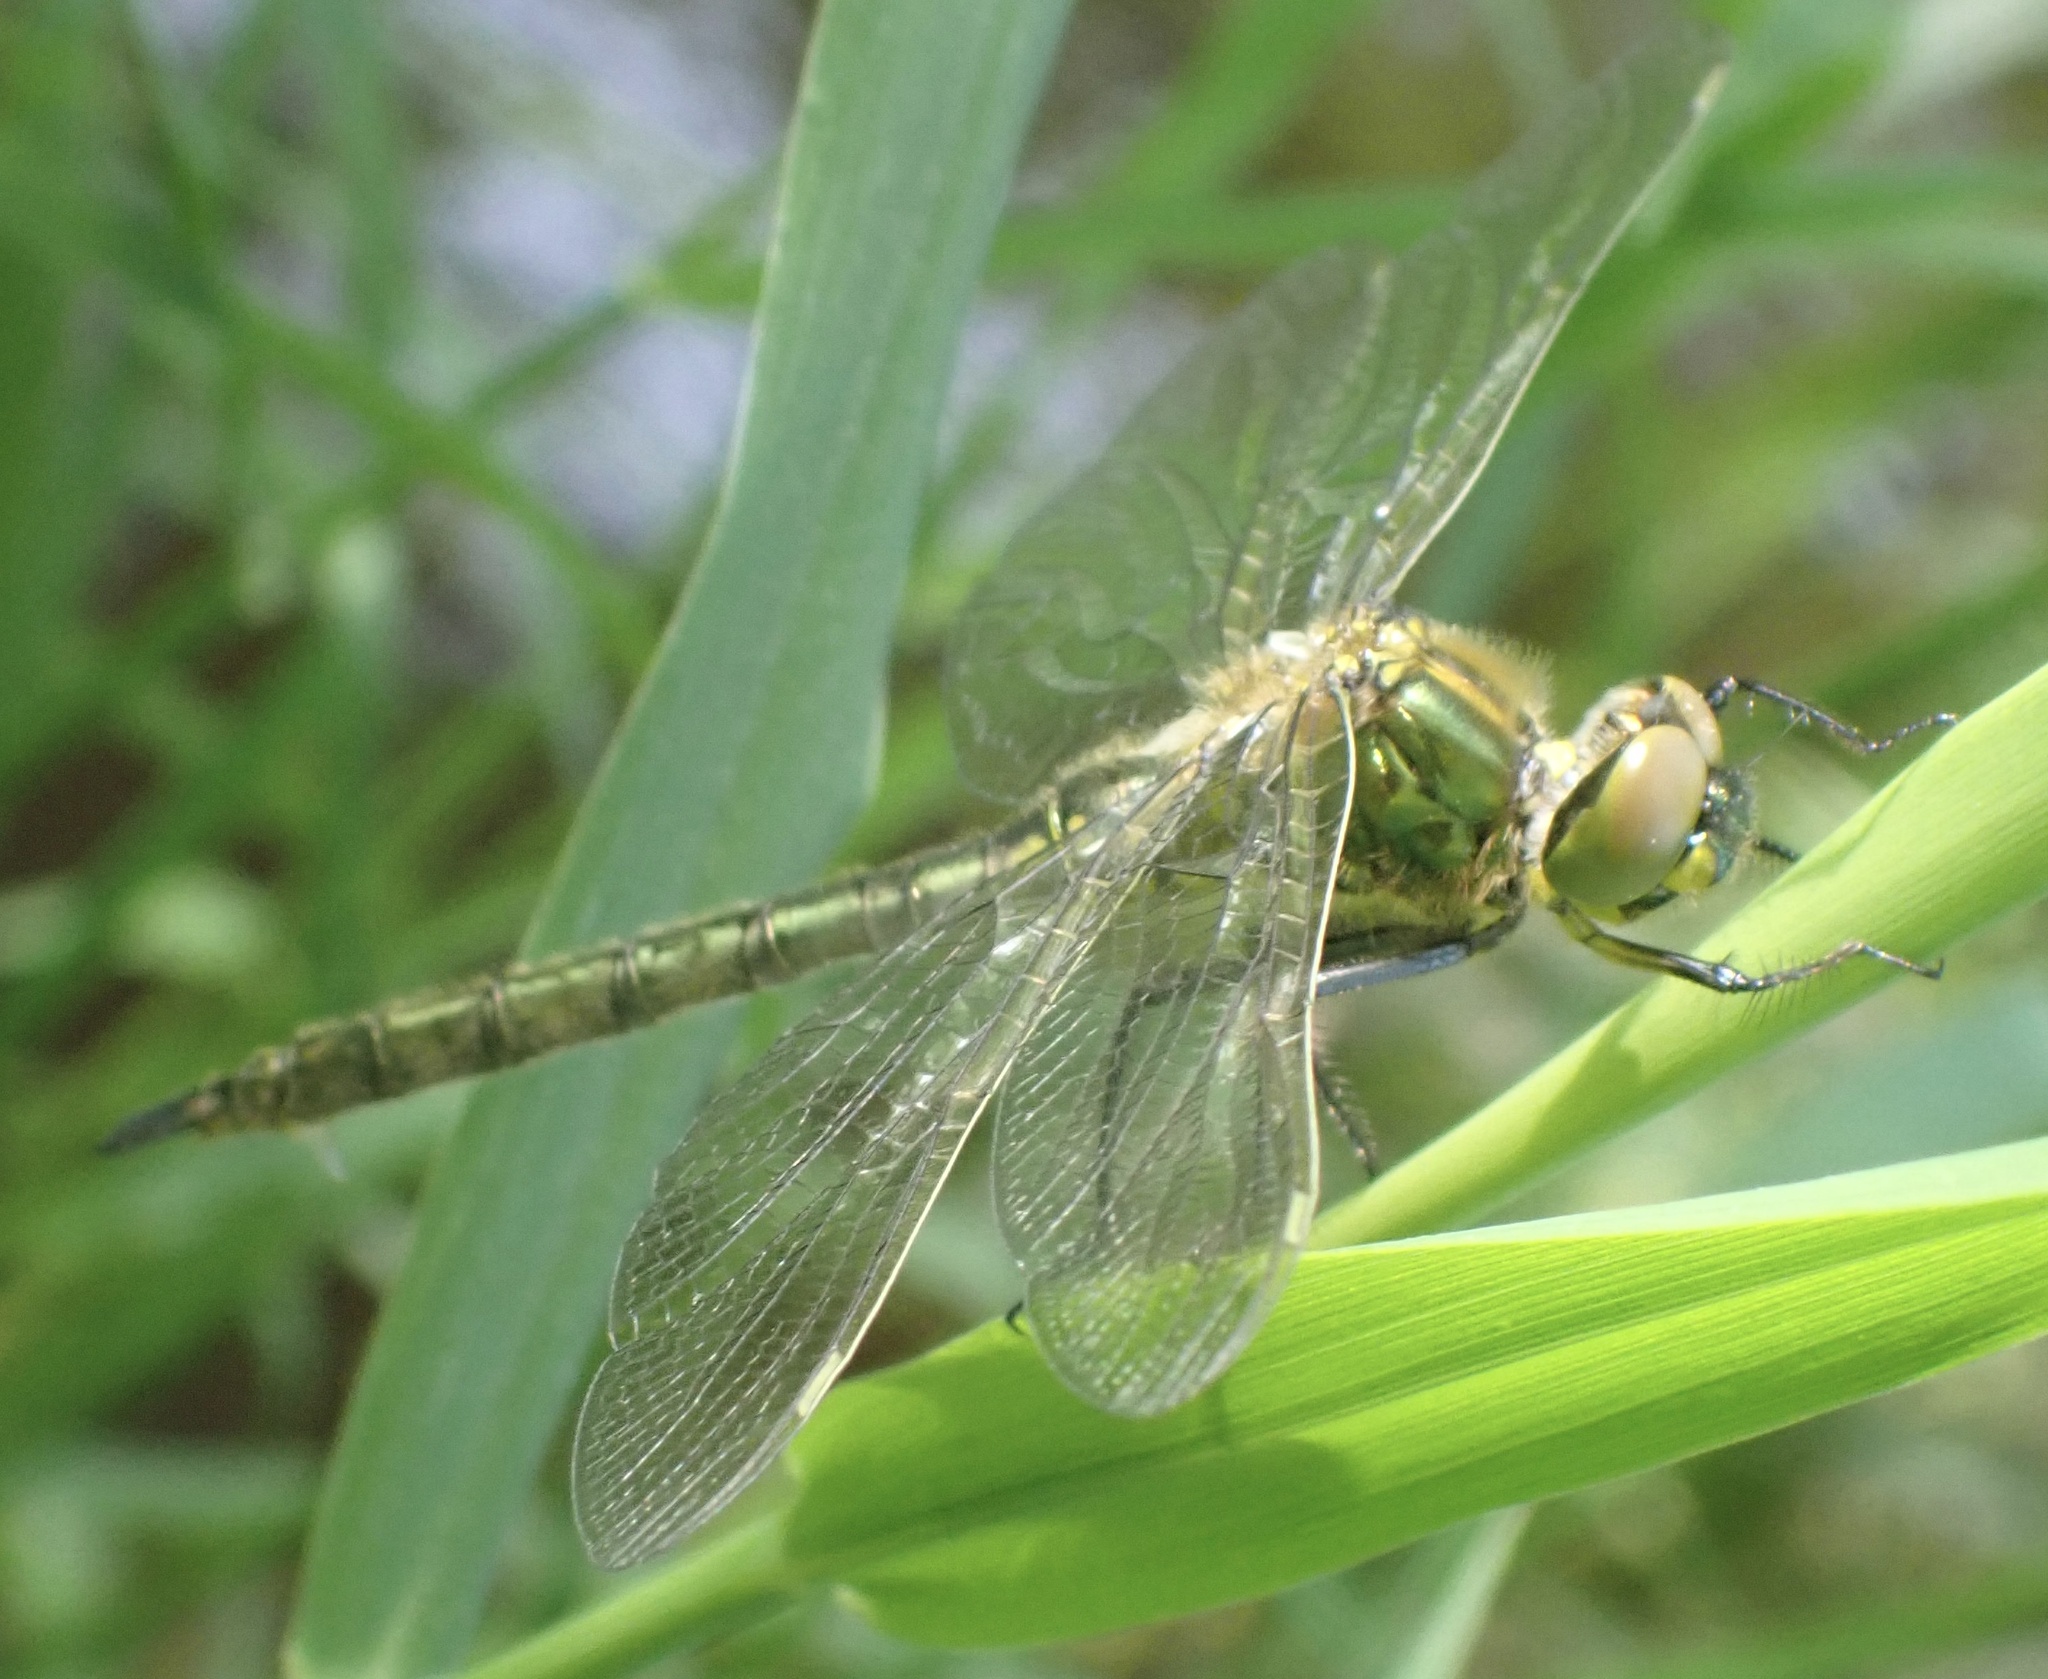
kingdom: Animalia
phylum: Arthropoda
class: Insecta
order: Odonata
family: Corduliidae
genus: Somatochlora
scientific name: Somatochlora metallica
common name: Brilliant emerald
